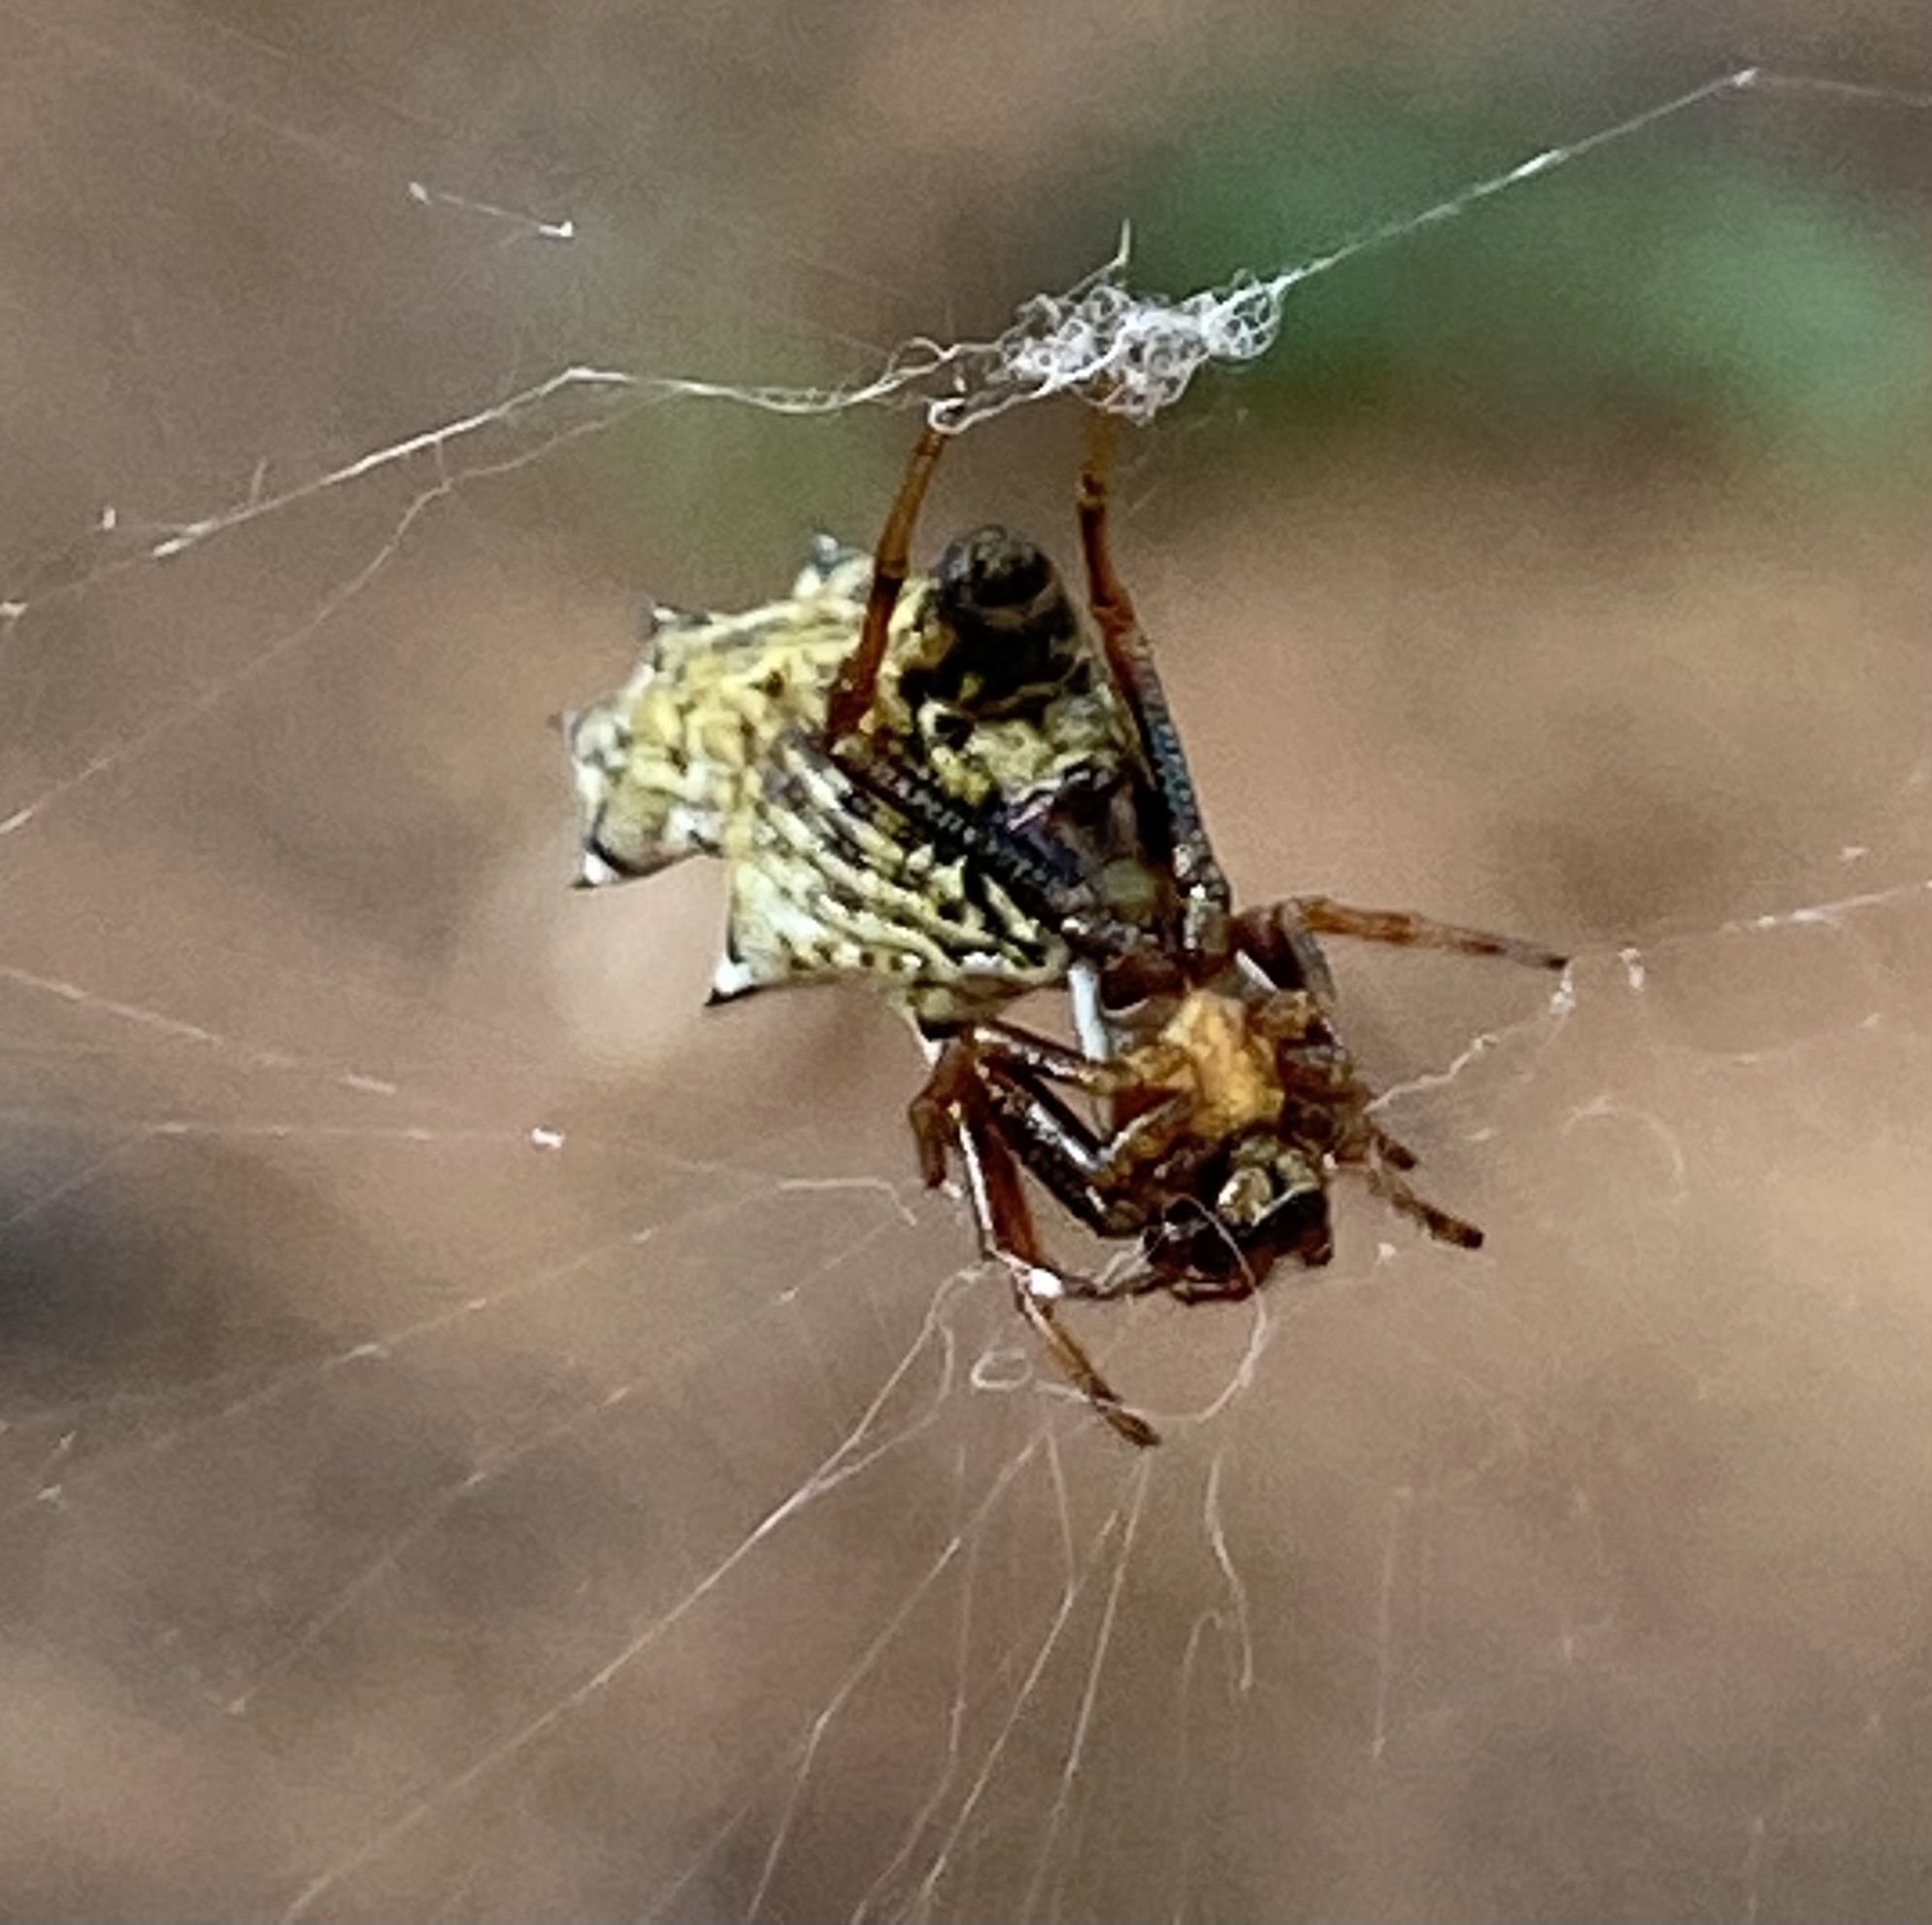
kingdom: Animalia
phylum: Arthropoda
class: Arachnida
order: Araneae
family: Araneidae
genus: Micrathena
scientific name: Micrathena gracilis
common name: Orb weavers
